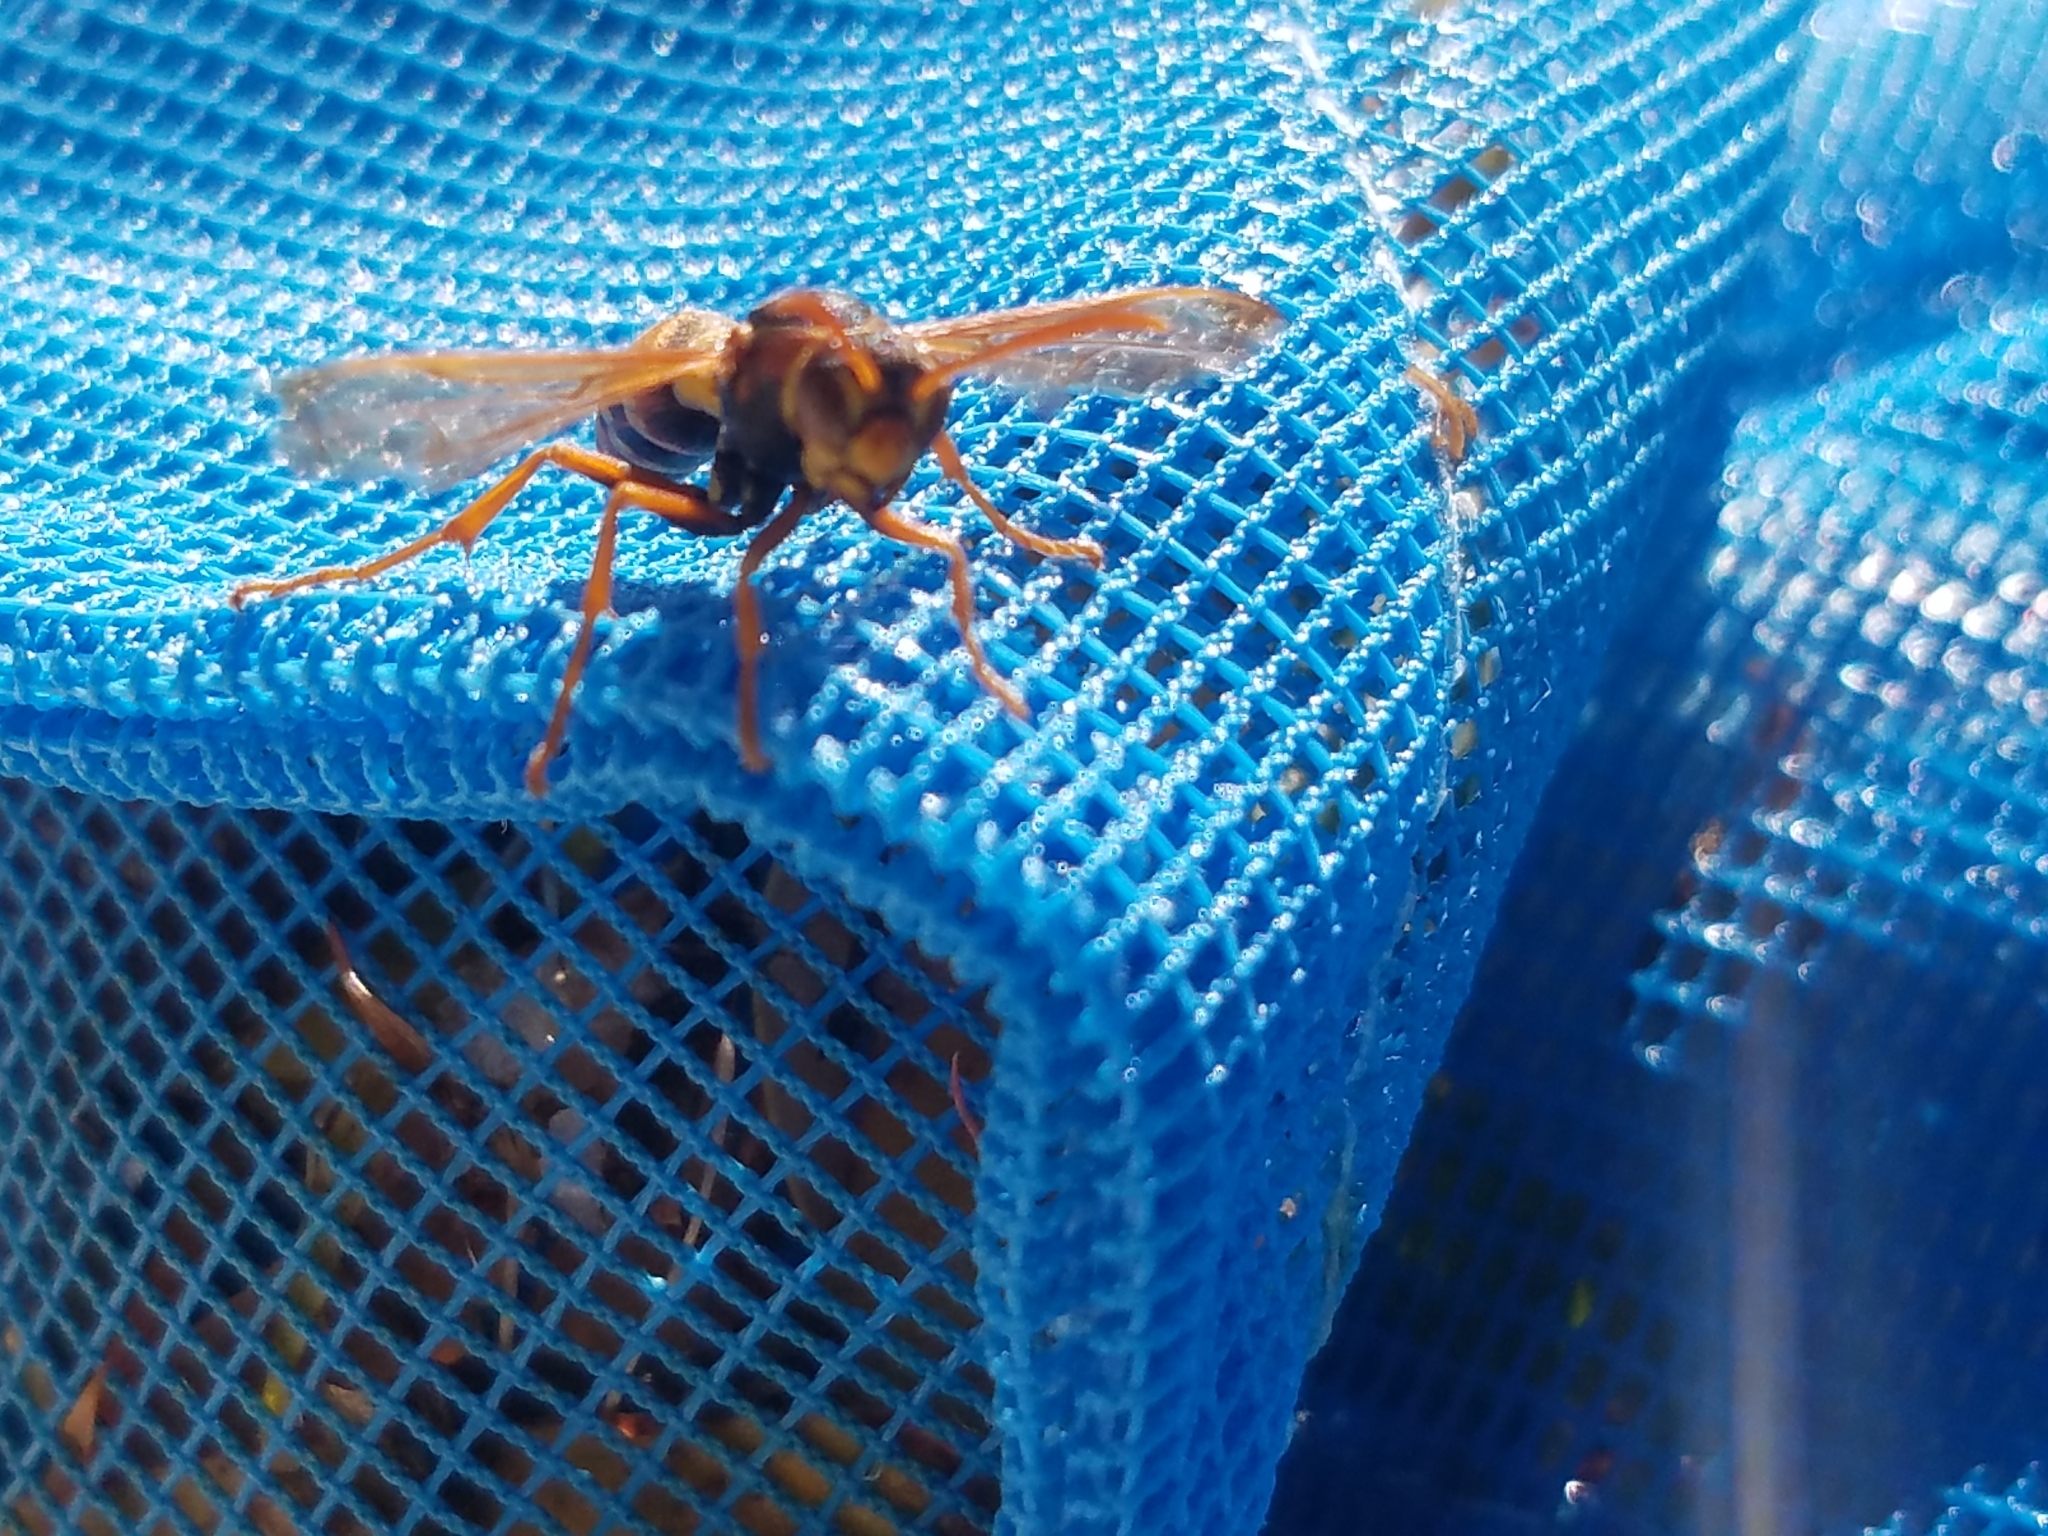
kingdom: Animalia
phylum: Arthropoda
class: Insecta
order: Hymenoptera
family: Eumenidae
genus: Polistes
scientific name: Polistes humilis
